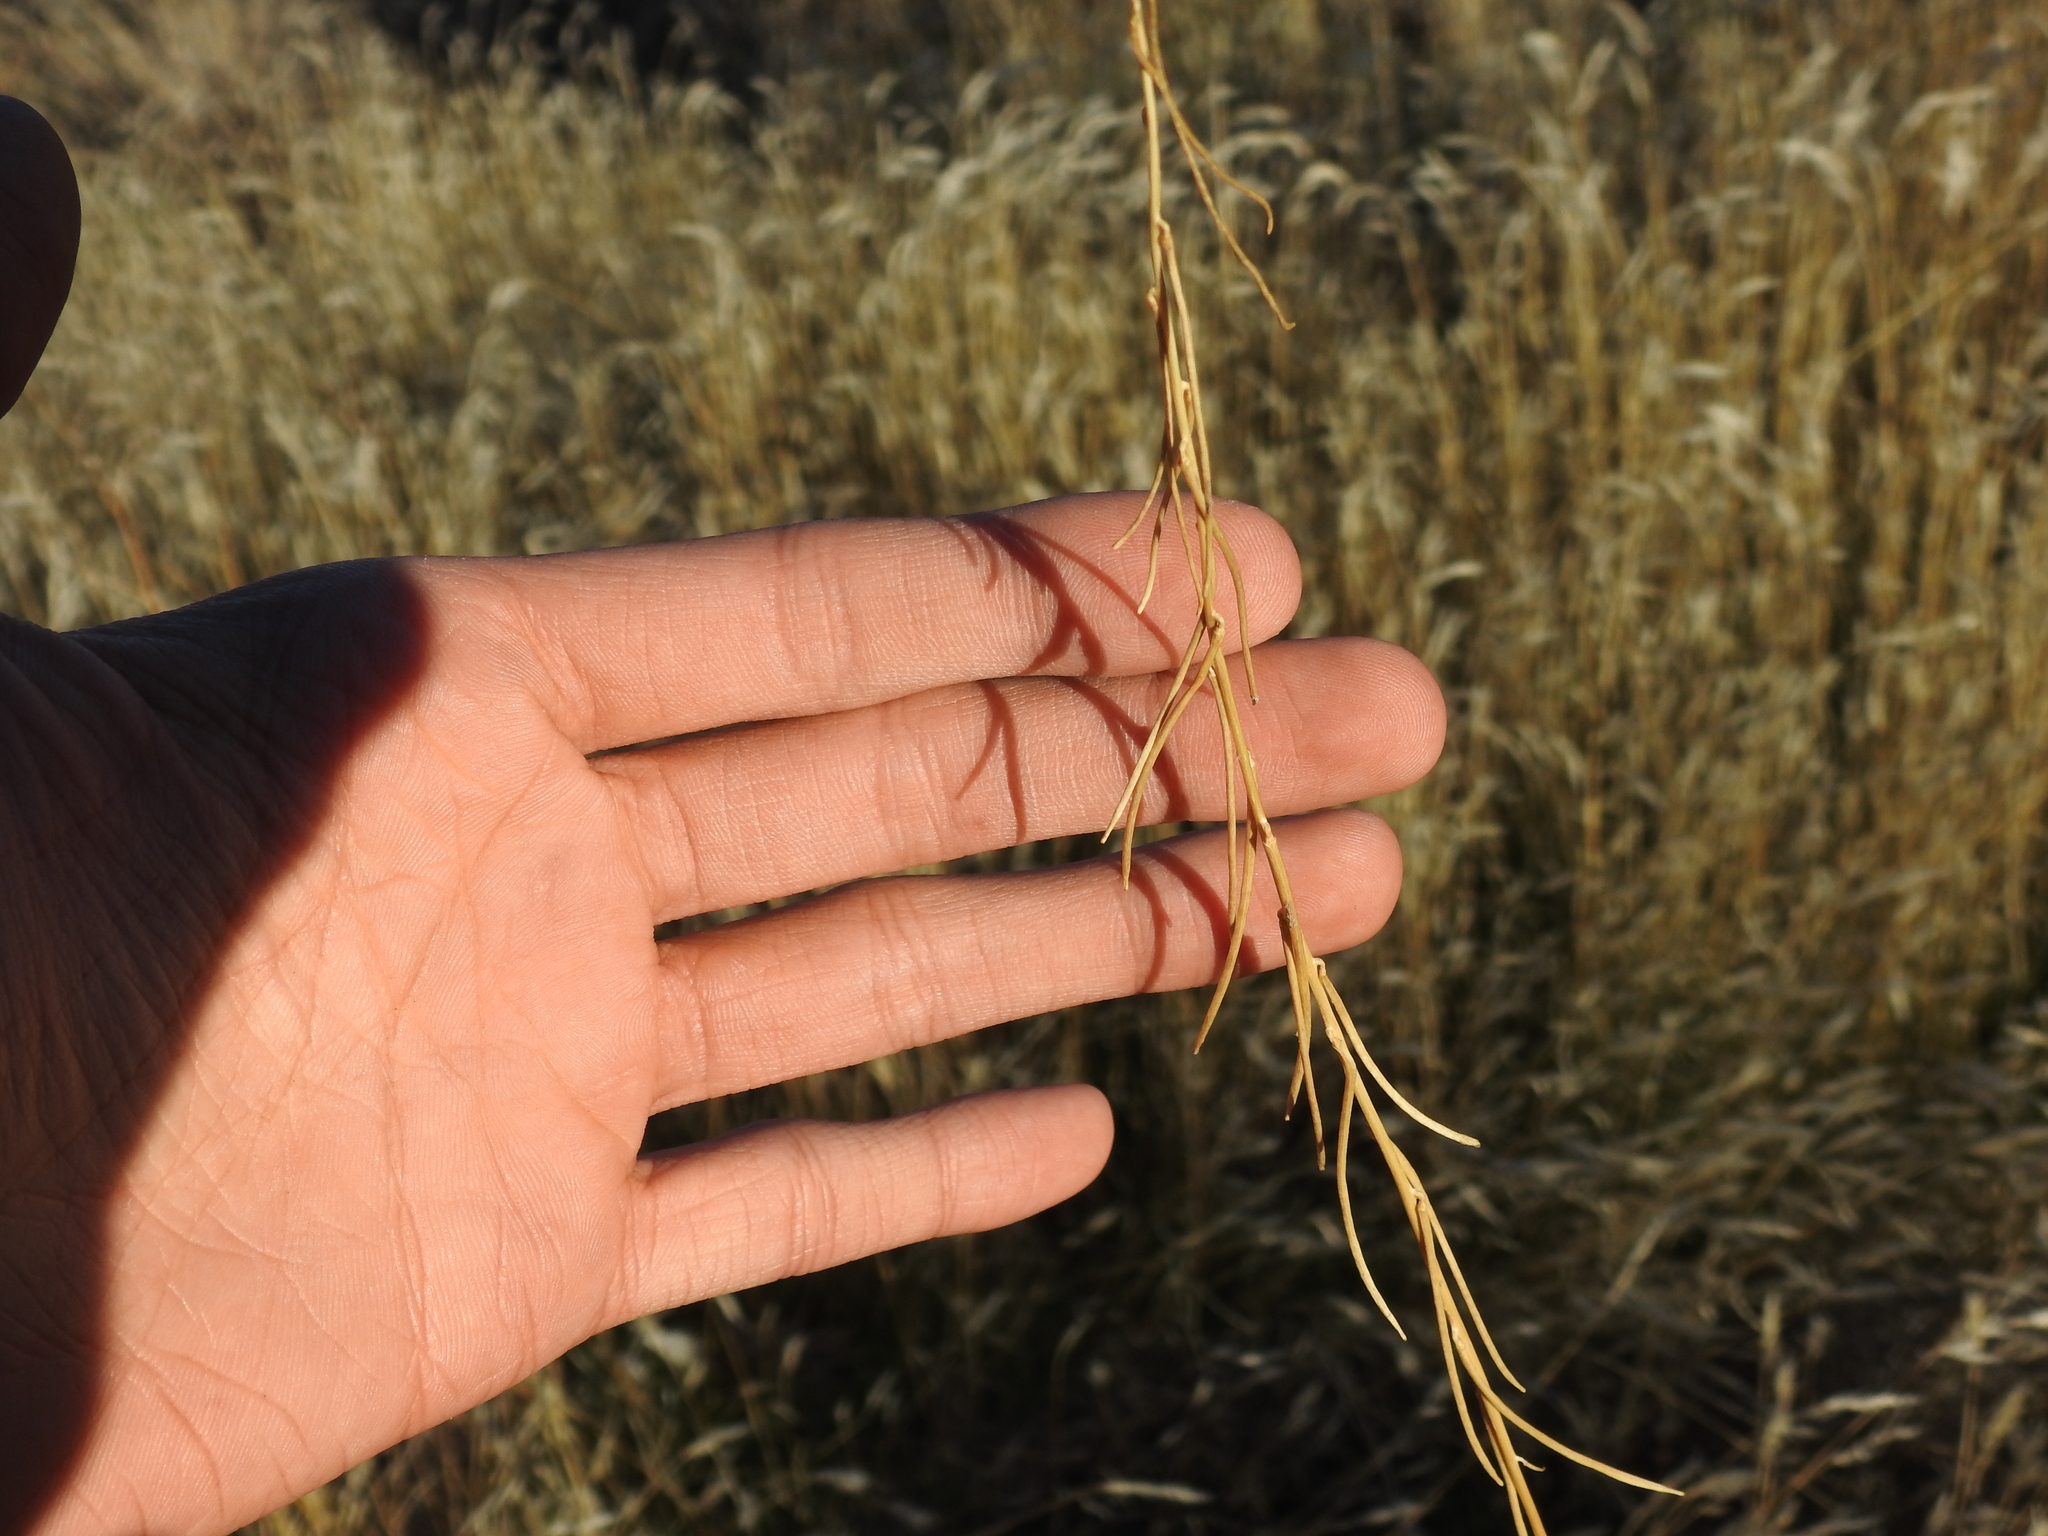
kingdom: Plantae
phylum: Tracheophyta
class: Magnoliopsida
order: Brassicales
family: Brassicaceae
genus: Streptanthus
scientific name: Streptanthus lasiophyllus
